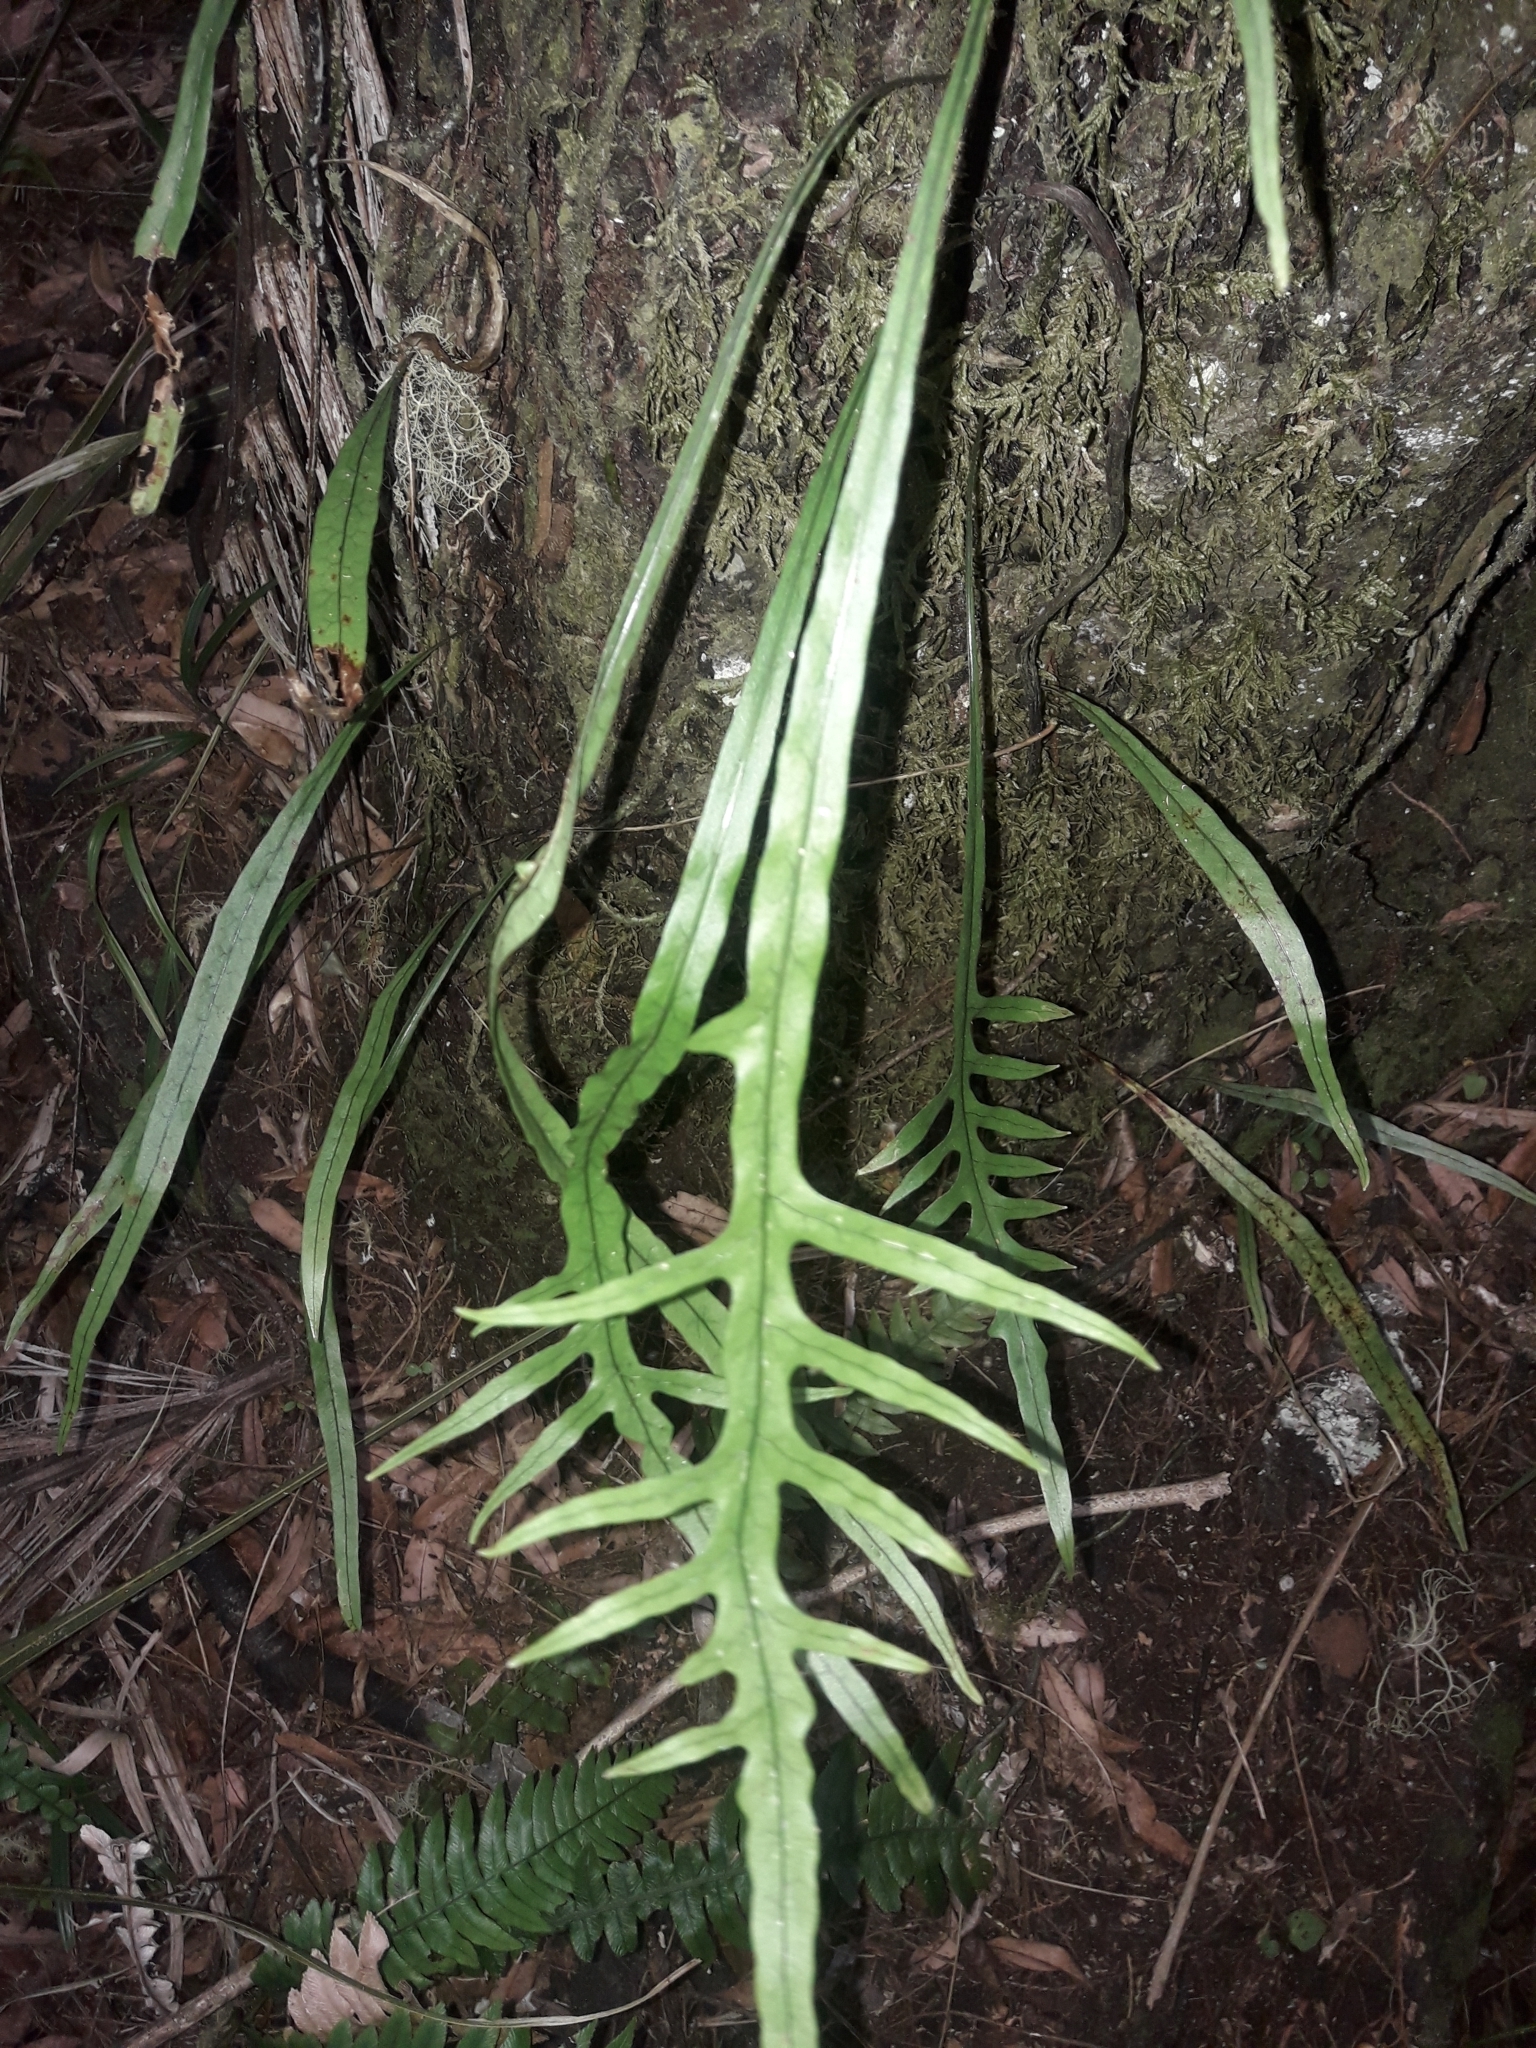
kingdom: Plantae
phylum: Tracheophyta
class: Polypodiopsida
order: Polypodiales
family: Polypodiaceae
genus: Lecanopteris
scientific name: Lecanopteris scandens
